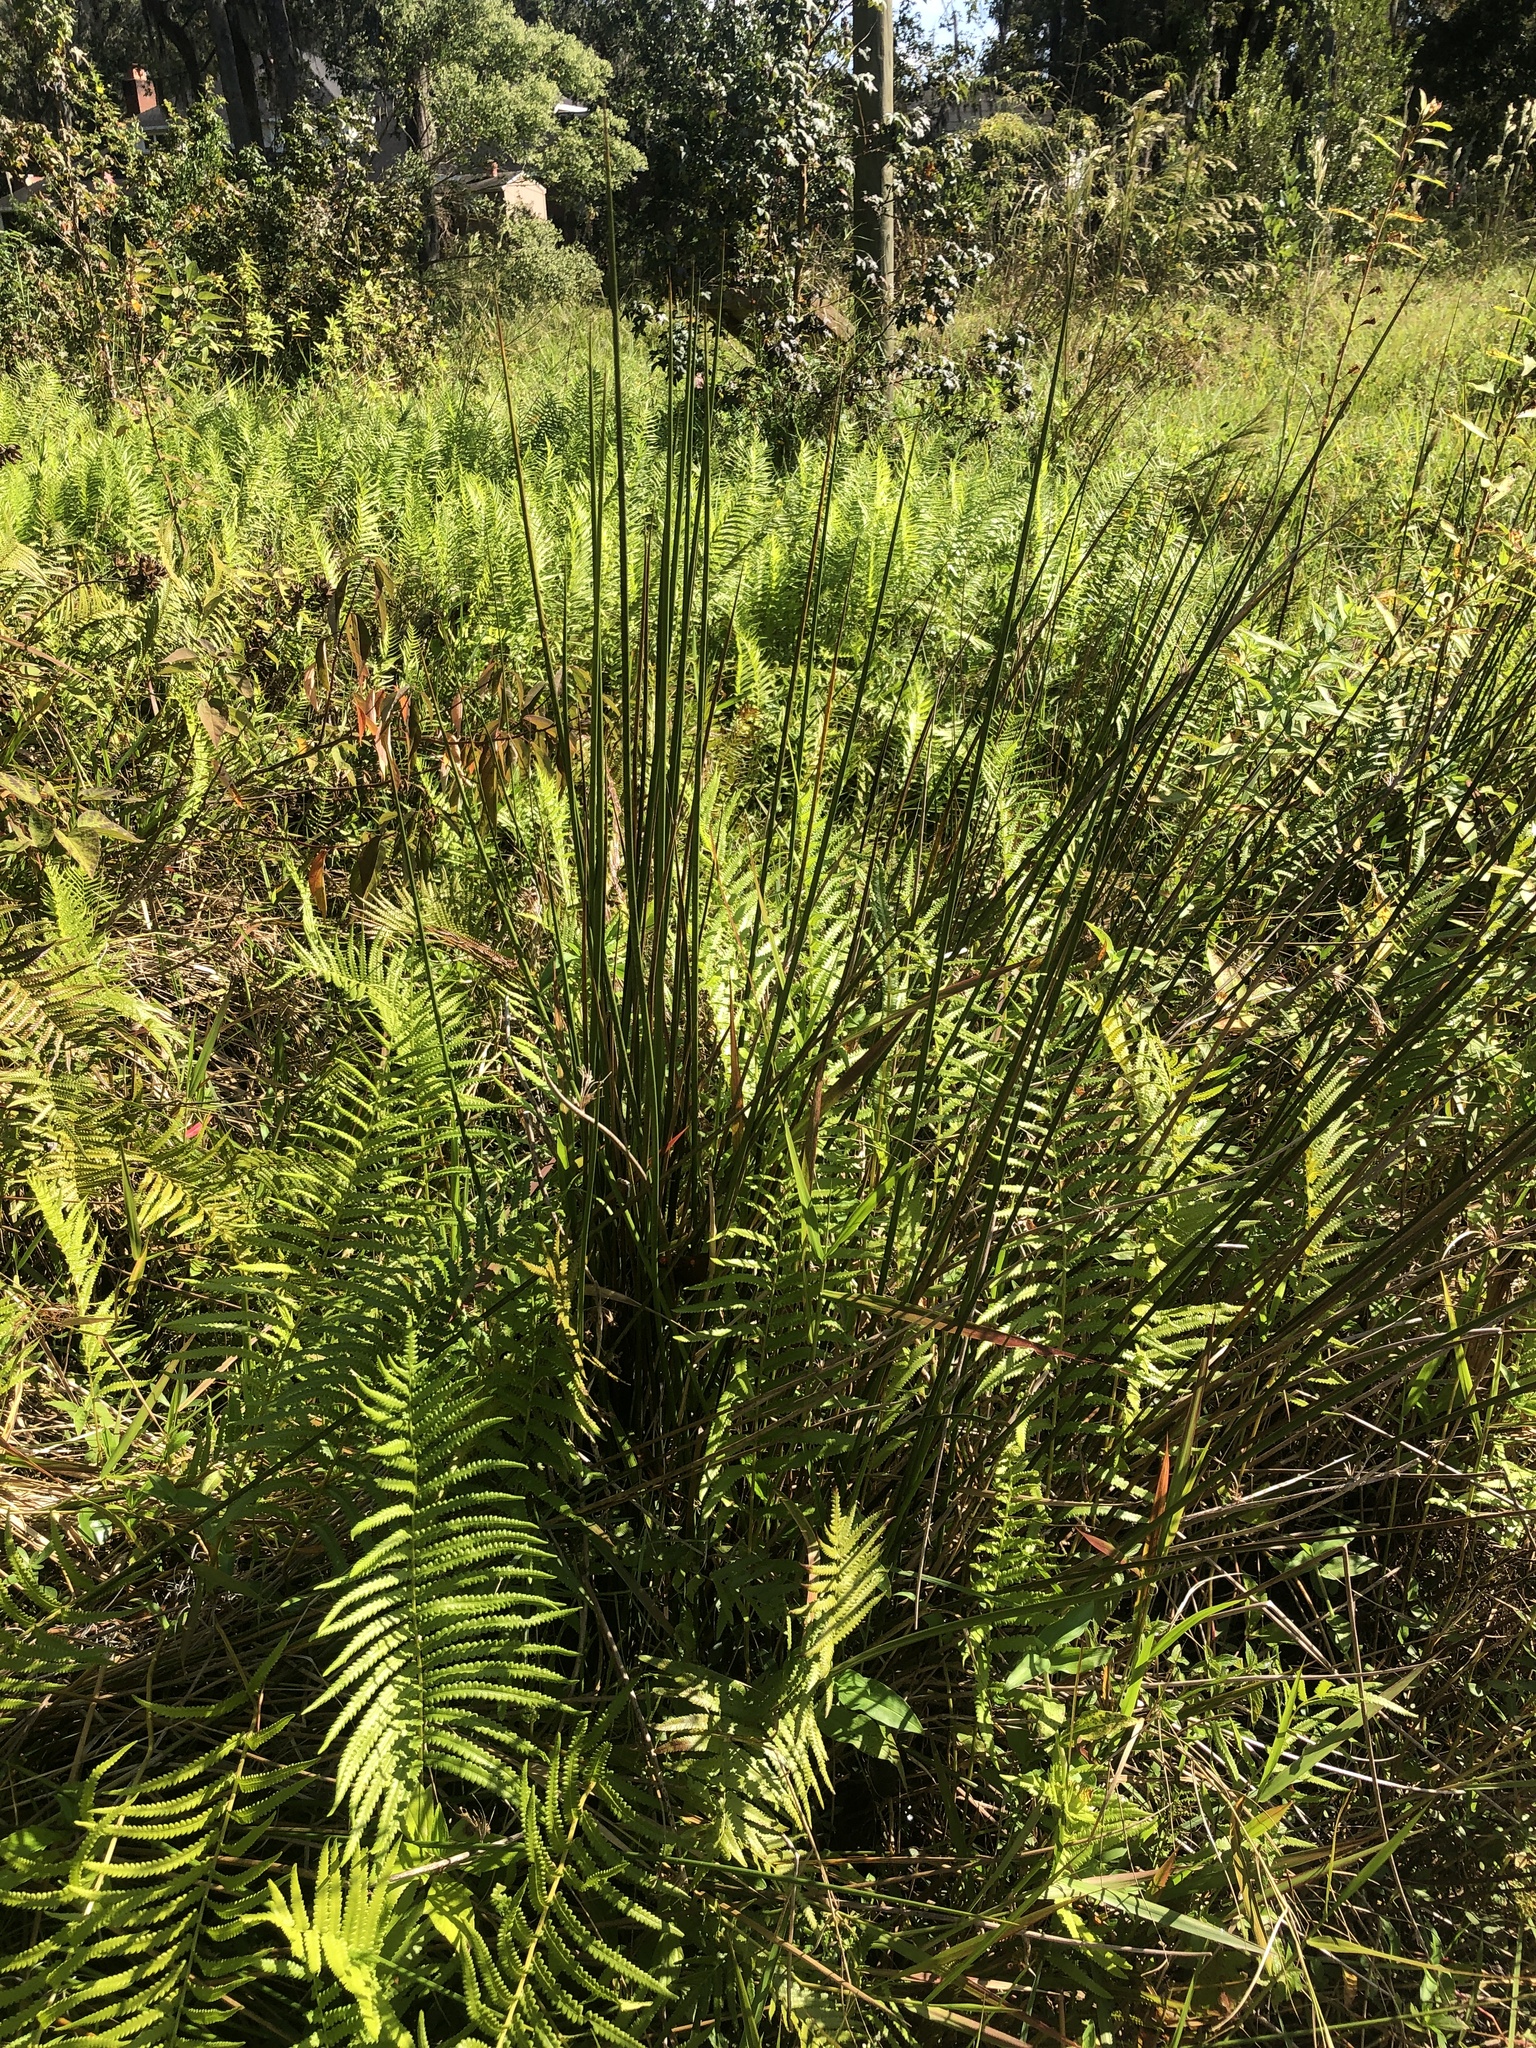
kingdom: Plantae
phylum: Tracheophyta
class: Liliopsida
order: Poales
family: Juncaceae
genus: Juncus
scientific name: Juncus effusus
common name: Soft rush
